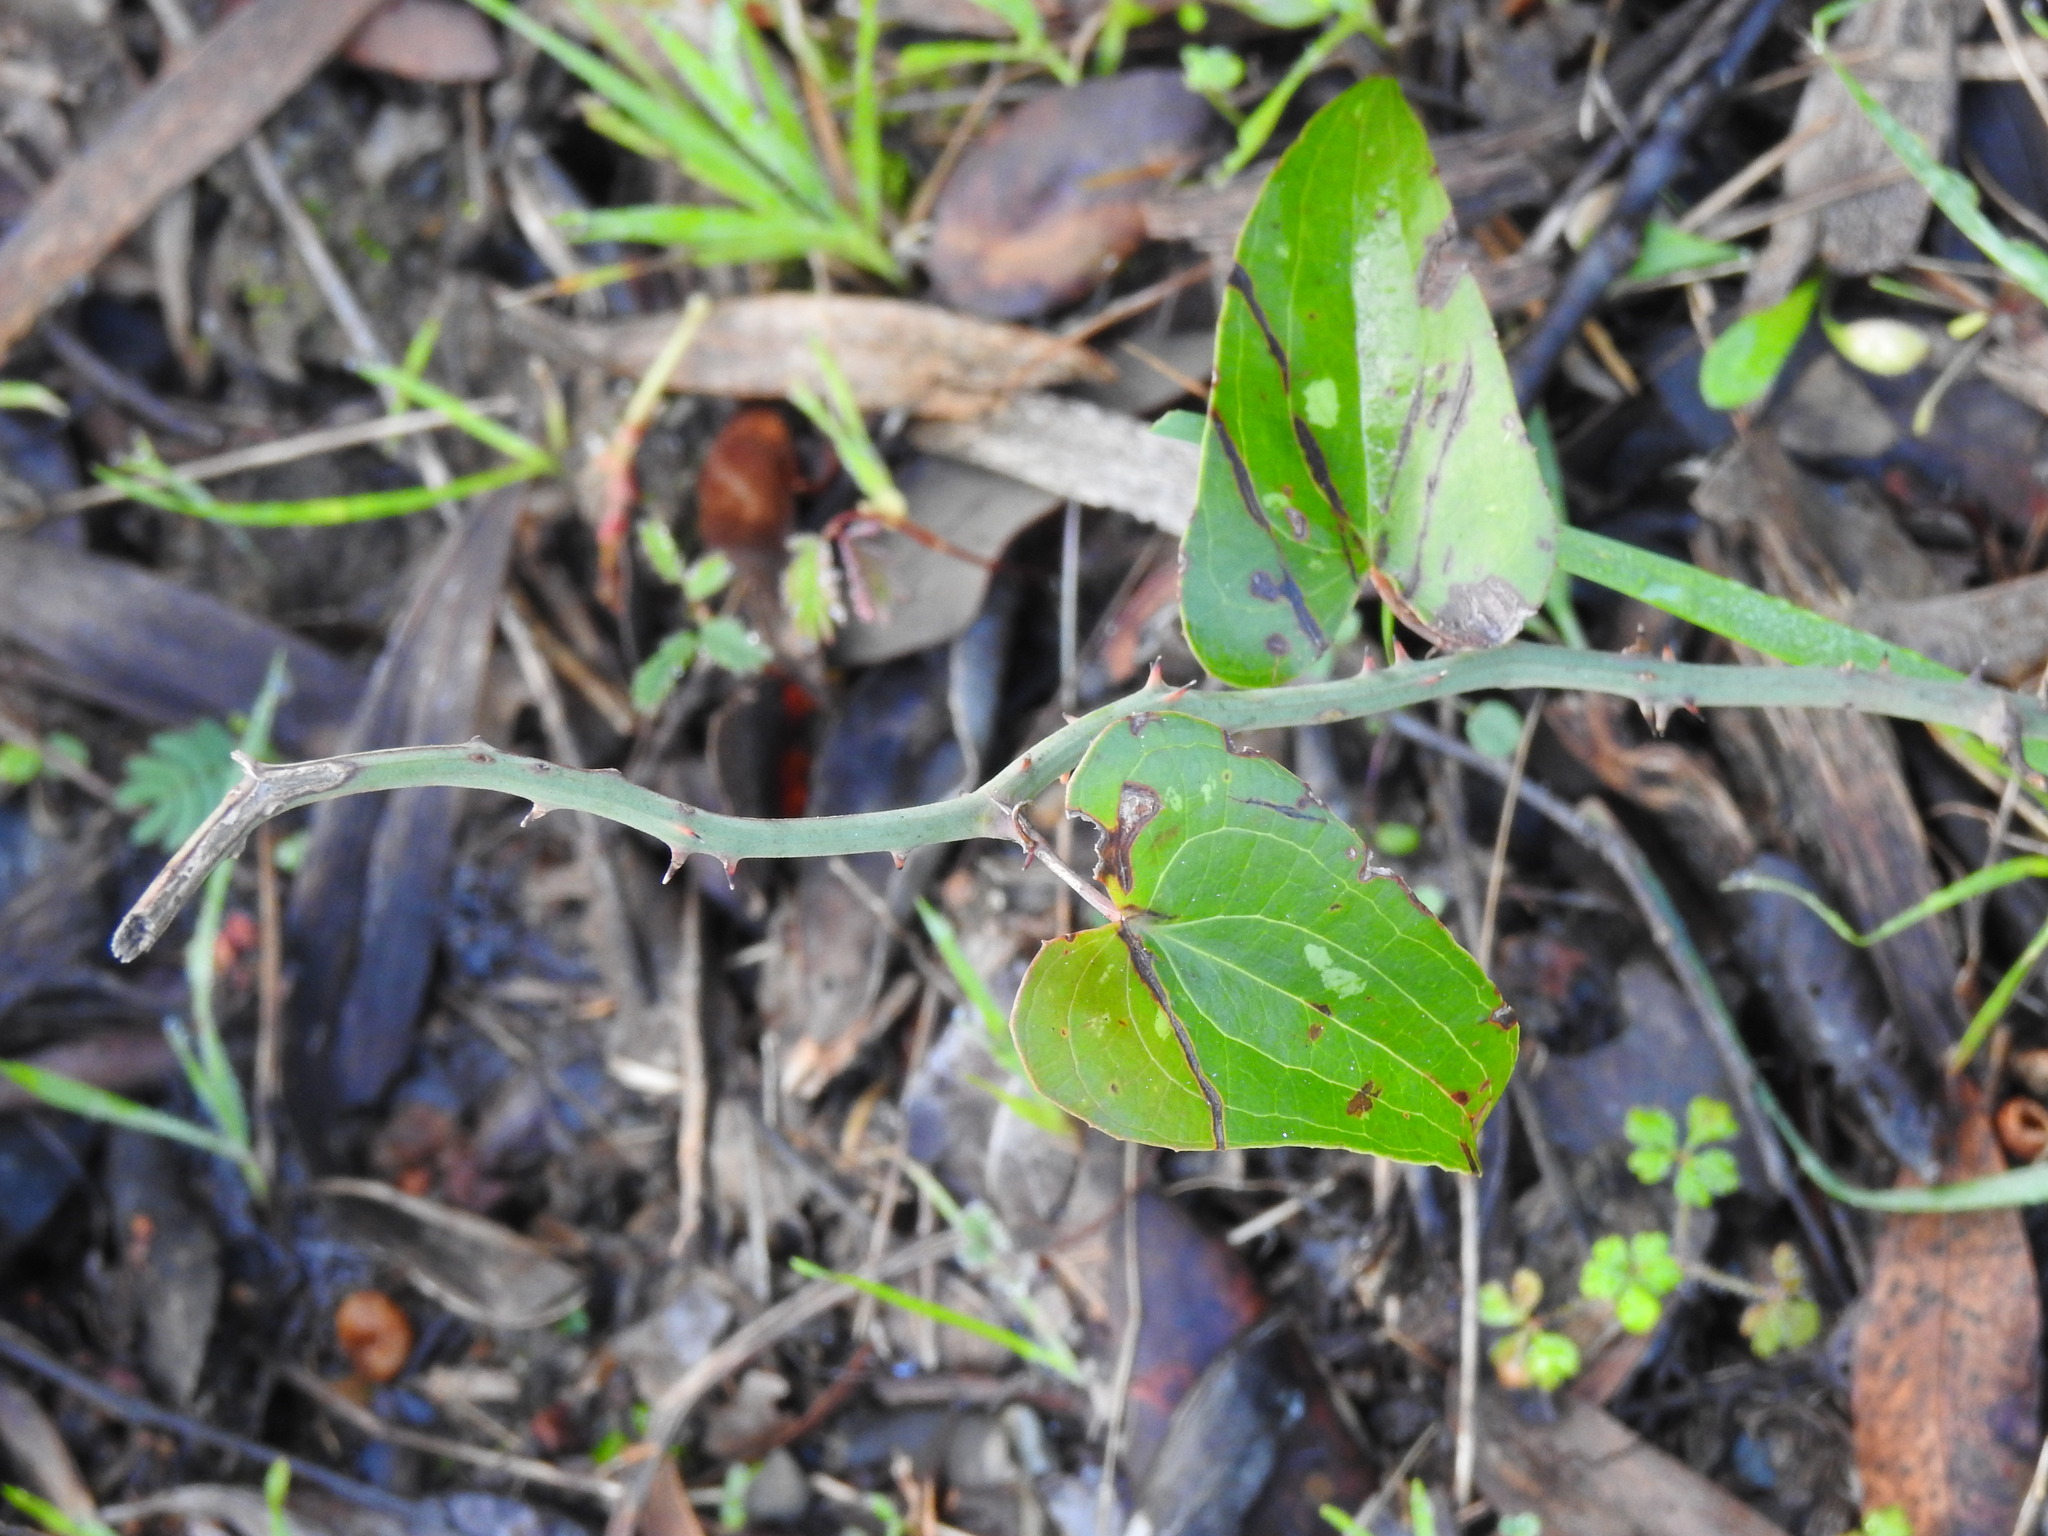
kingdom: Plantae
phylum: Tracheophyta
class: Liliopsida
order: Liliales
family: Smilacaceae
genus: Smilax
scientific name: Smilax aspera
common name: Common smilax
